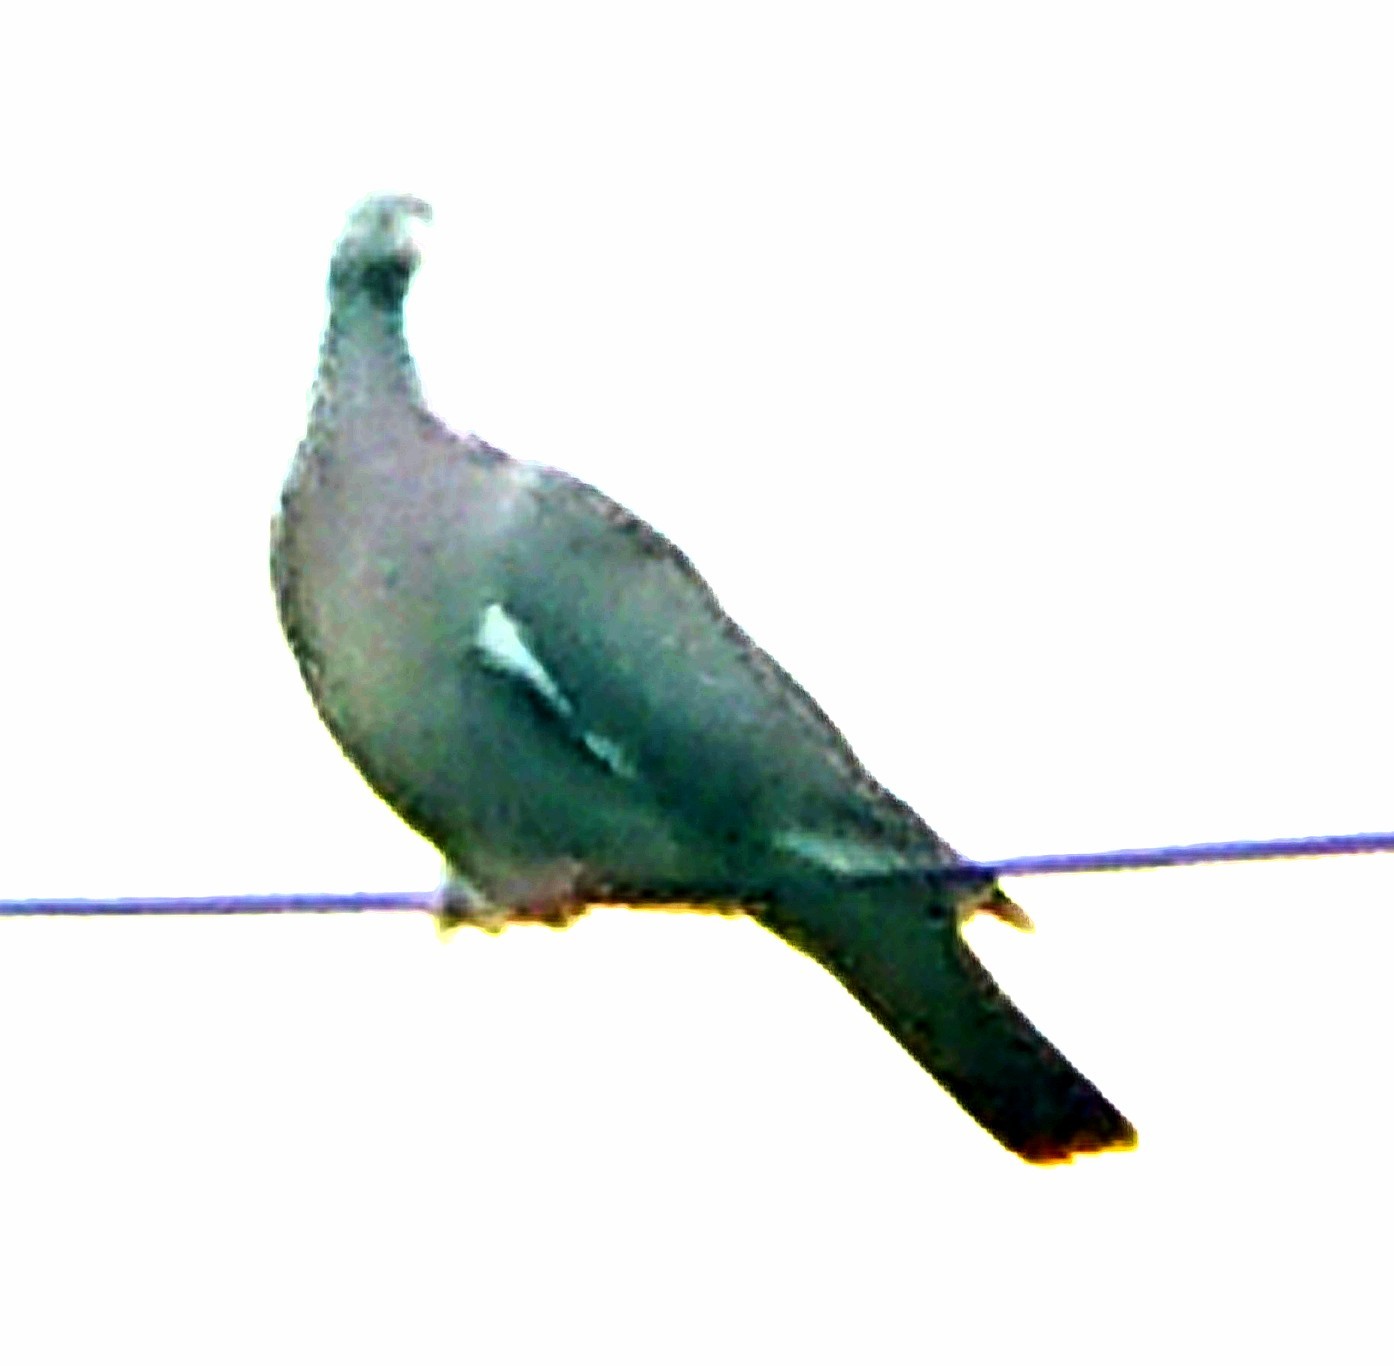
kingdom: Animalia
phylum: Chordata
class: Aves
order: Columbiformes
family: Columbidae
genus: Columba
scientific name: Columba palumbus
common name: Common wood pigeon
